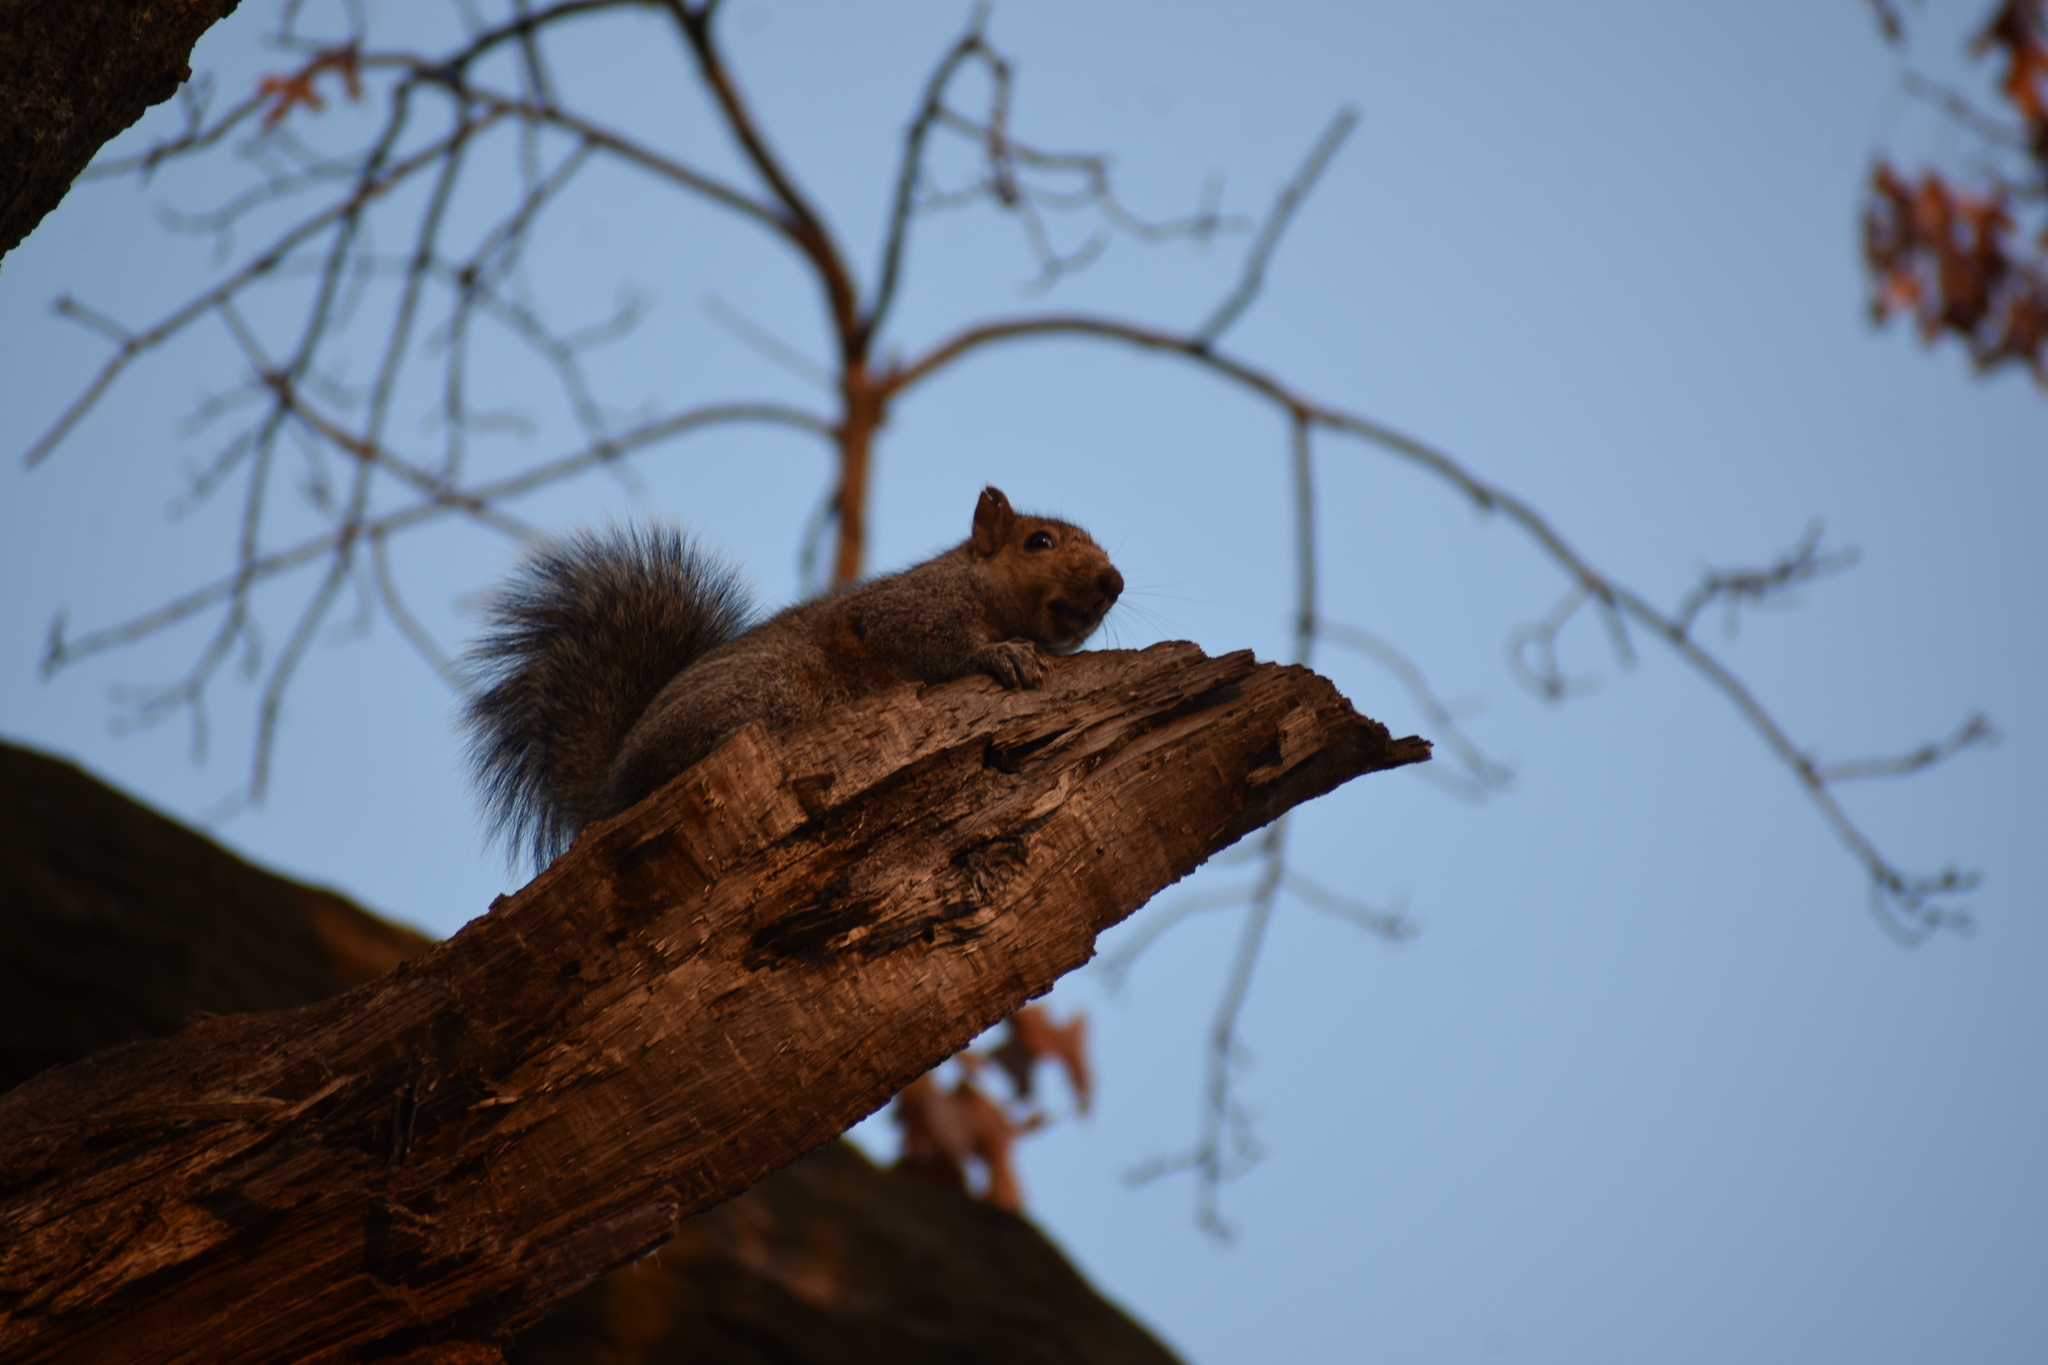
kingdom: Animalia
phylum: Chordata
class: Mammalia
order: Rodentia
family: Sciuridae
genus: Sciurus
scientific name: Sciurus carolinensis
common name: Eastern gray squirrel
